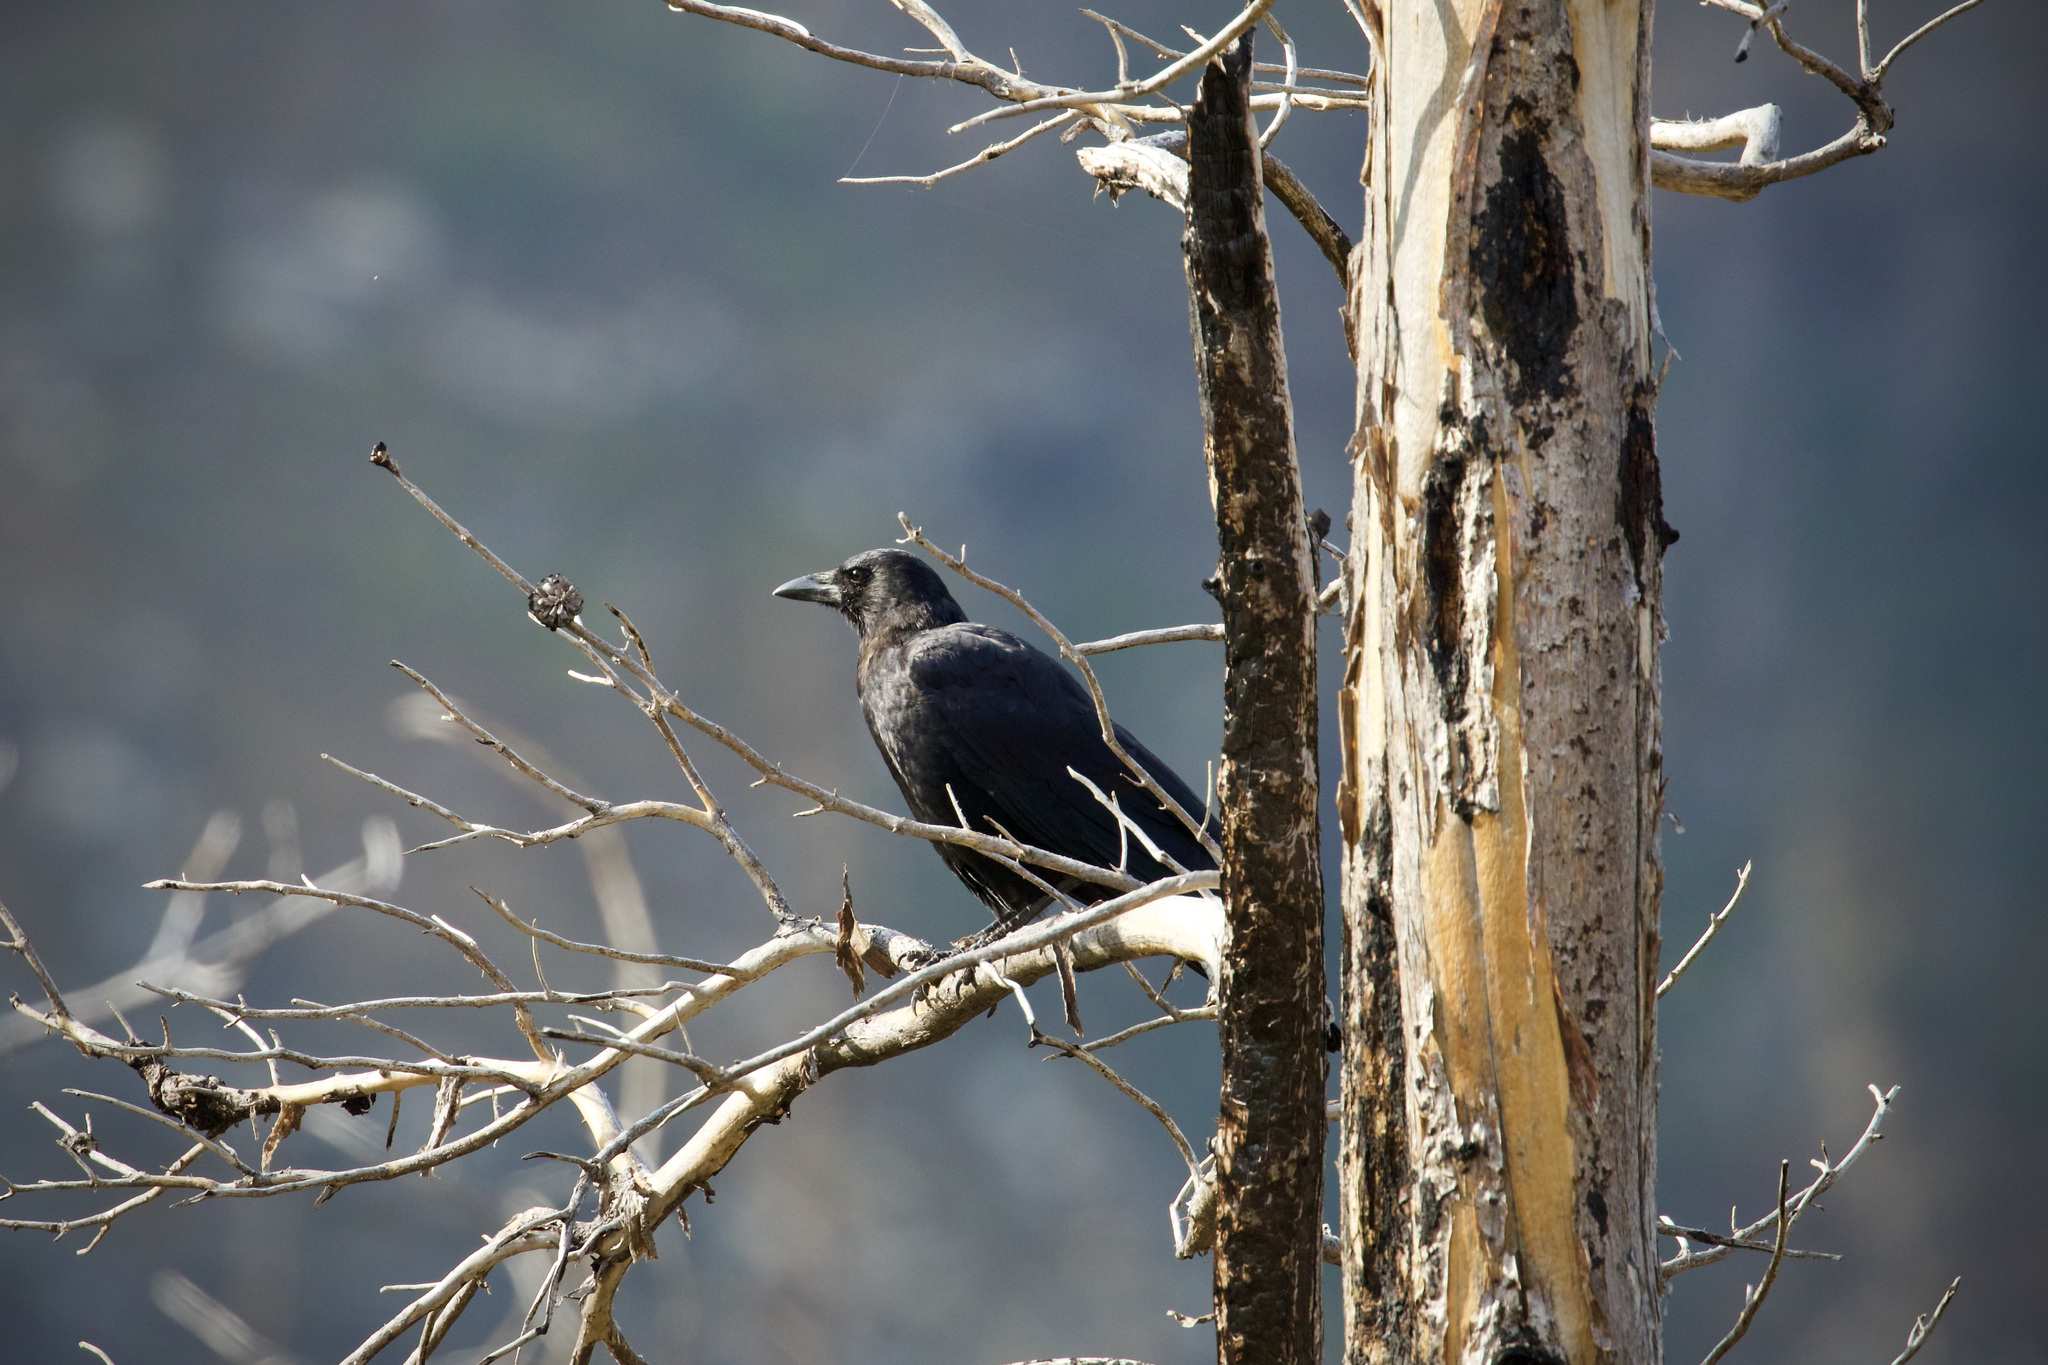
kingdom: Animalia
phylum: Chordata
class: Aves
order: Passeriformes
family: Corvidae
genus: Corvus
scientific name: Corvus brachyrhynchos
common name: American crow
